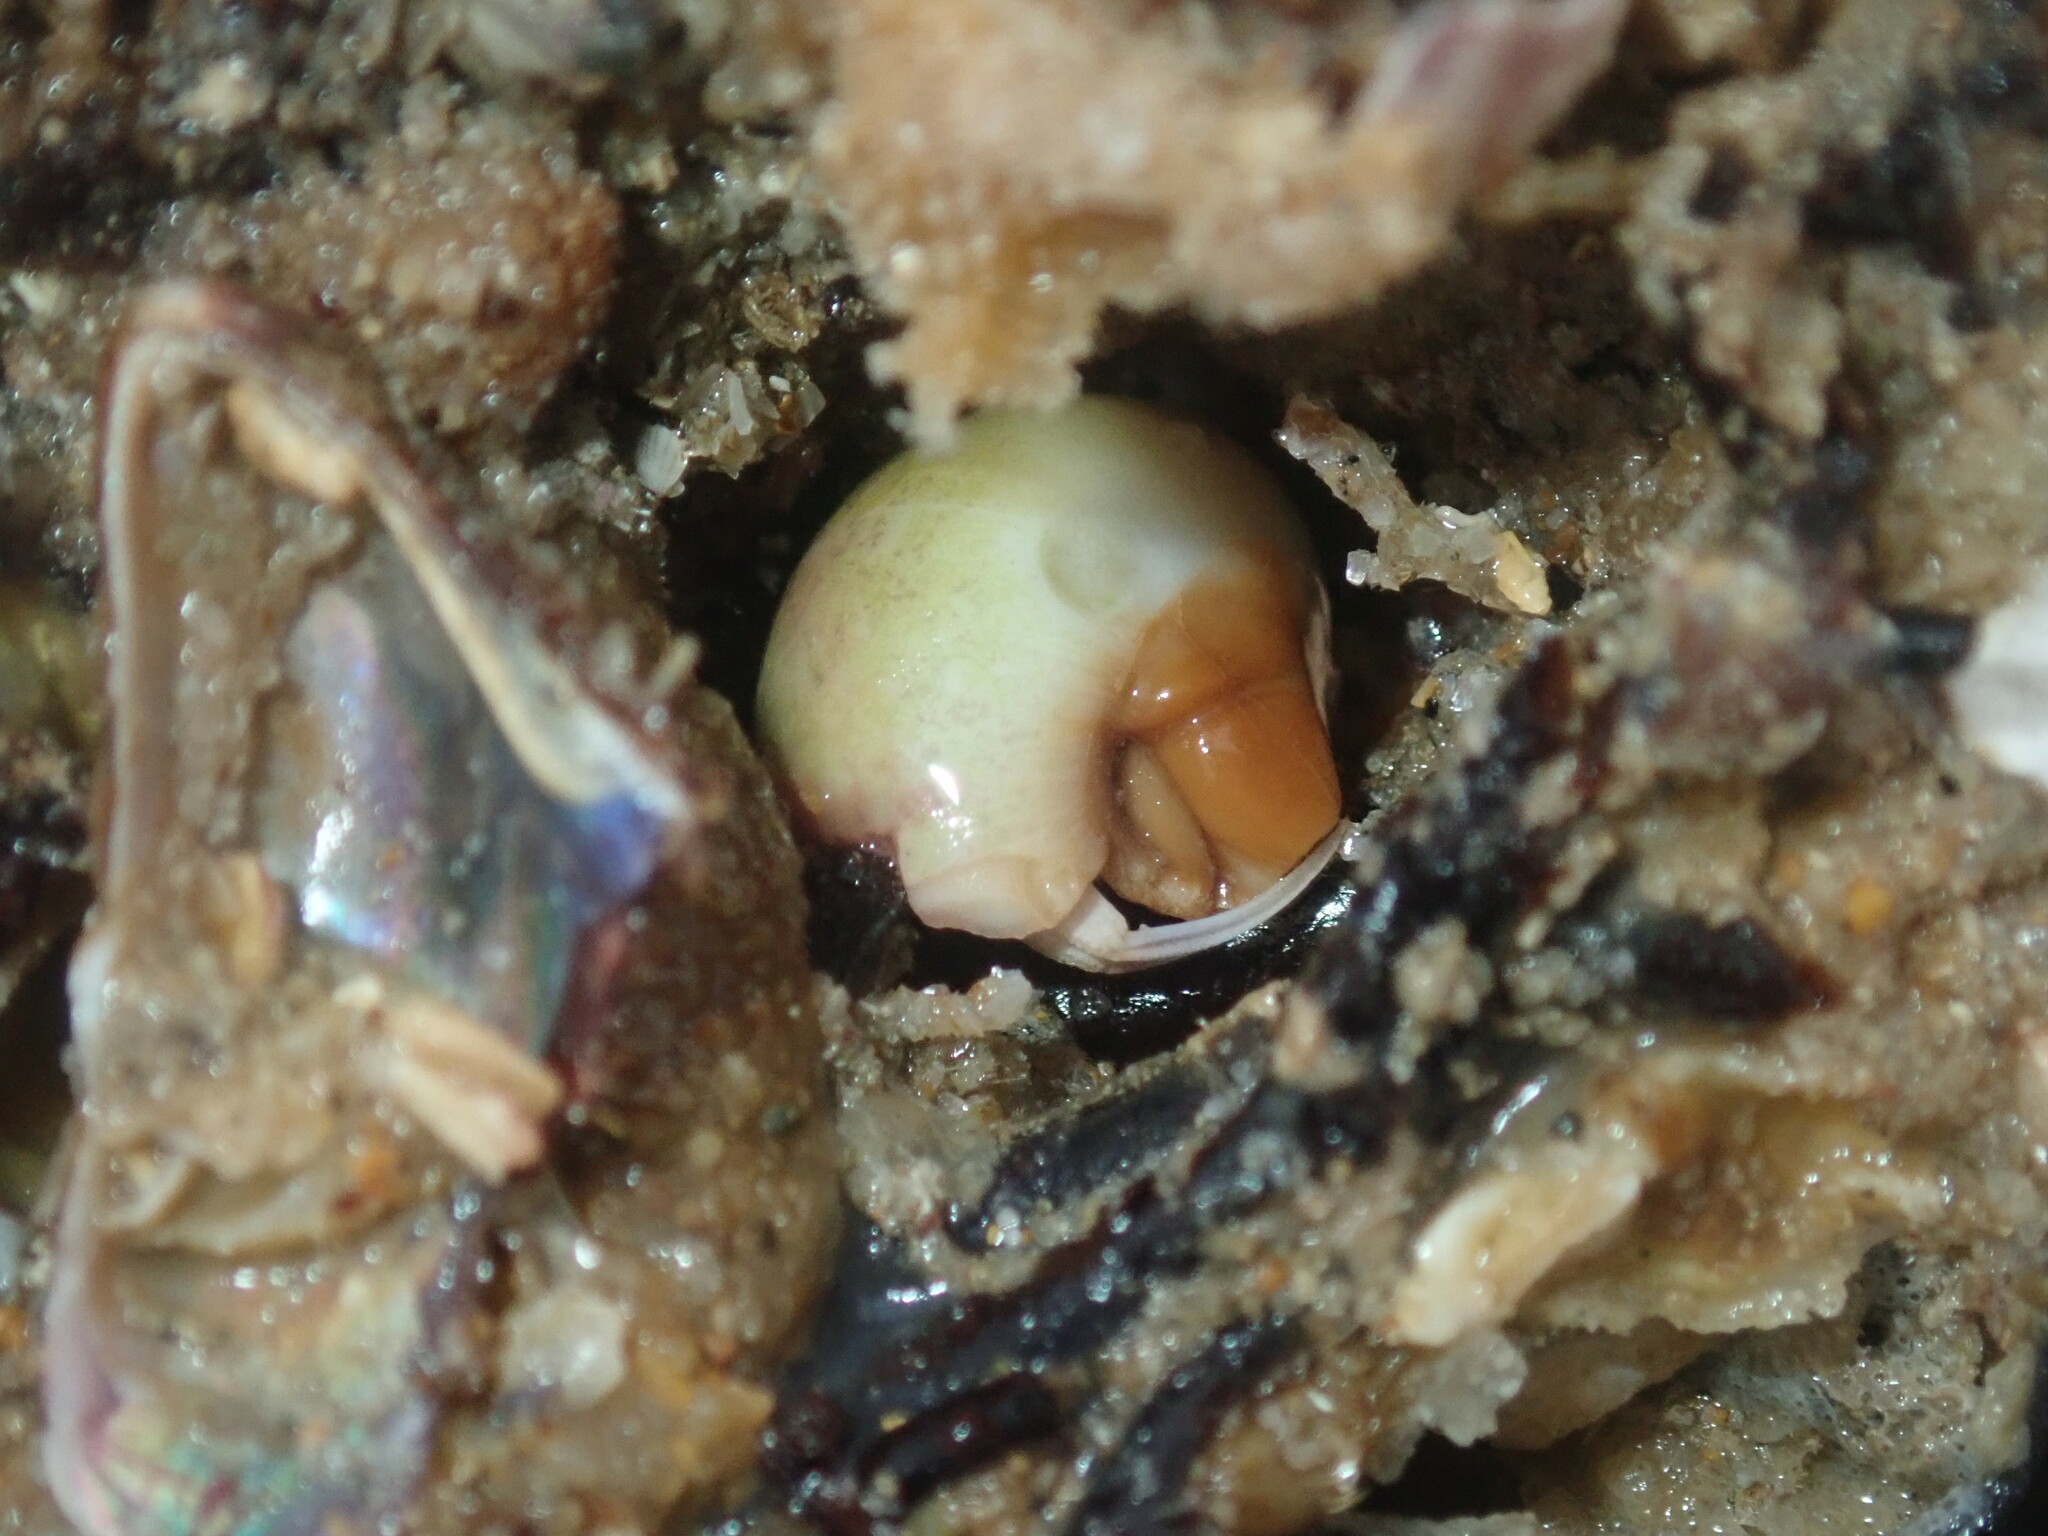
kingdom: Animalia
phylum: Mollusca
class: Gastropoda
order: Littorinimorpha
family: Naticidae
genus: Neverita
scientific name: Neverita didyma
